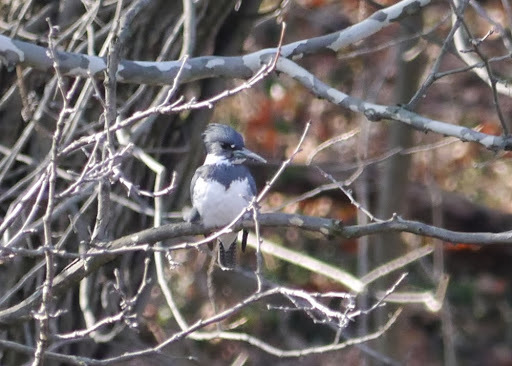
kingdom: Animalia
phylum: Chordata
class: Aves
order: Coraciiformes
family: Alcedinidae
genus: Megaceryle
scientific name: Megaceryle alcyon
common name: Belted kingfisher
